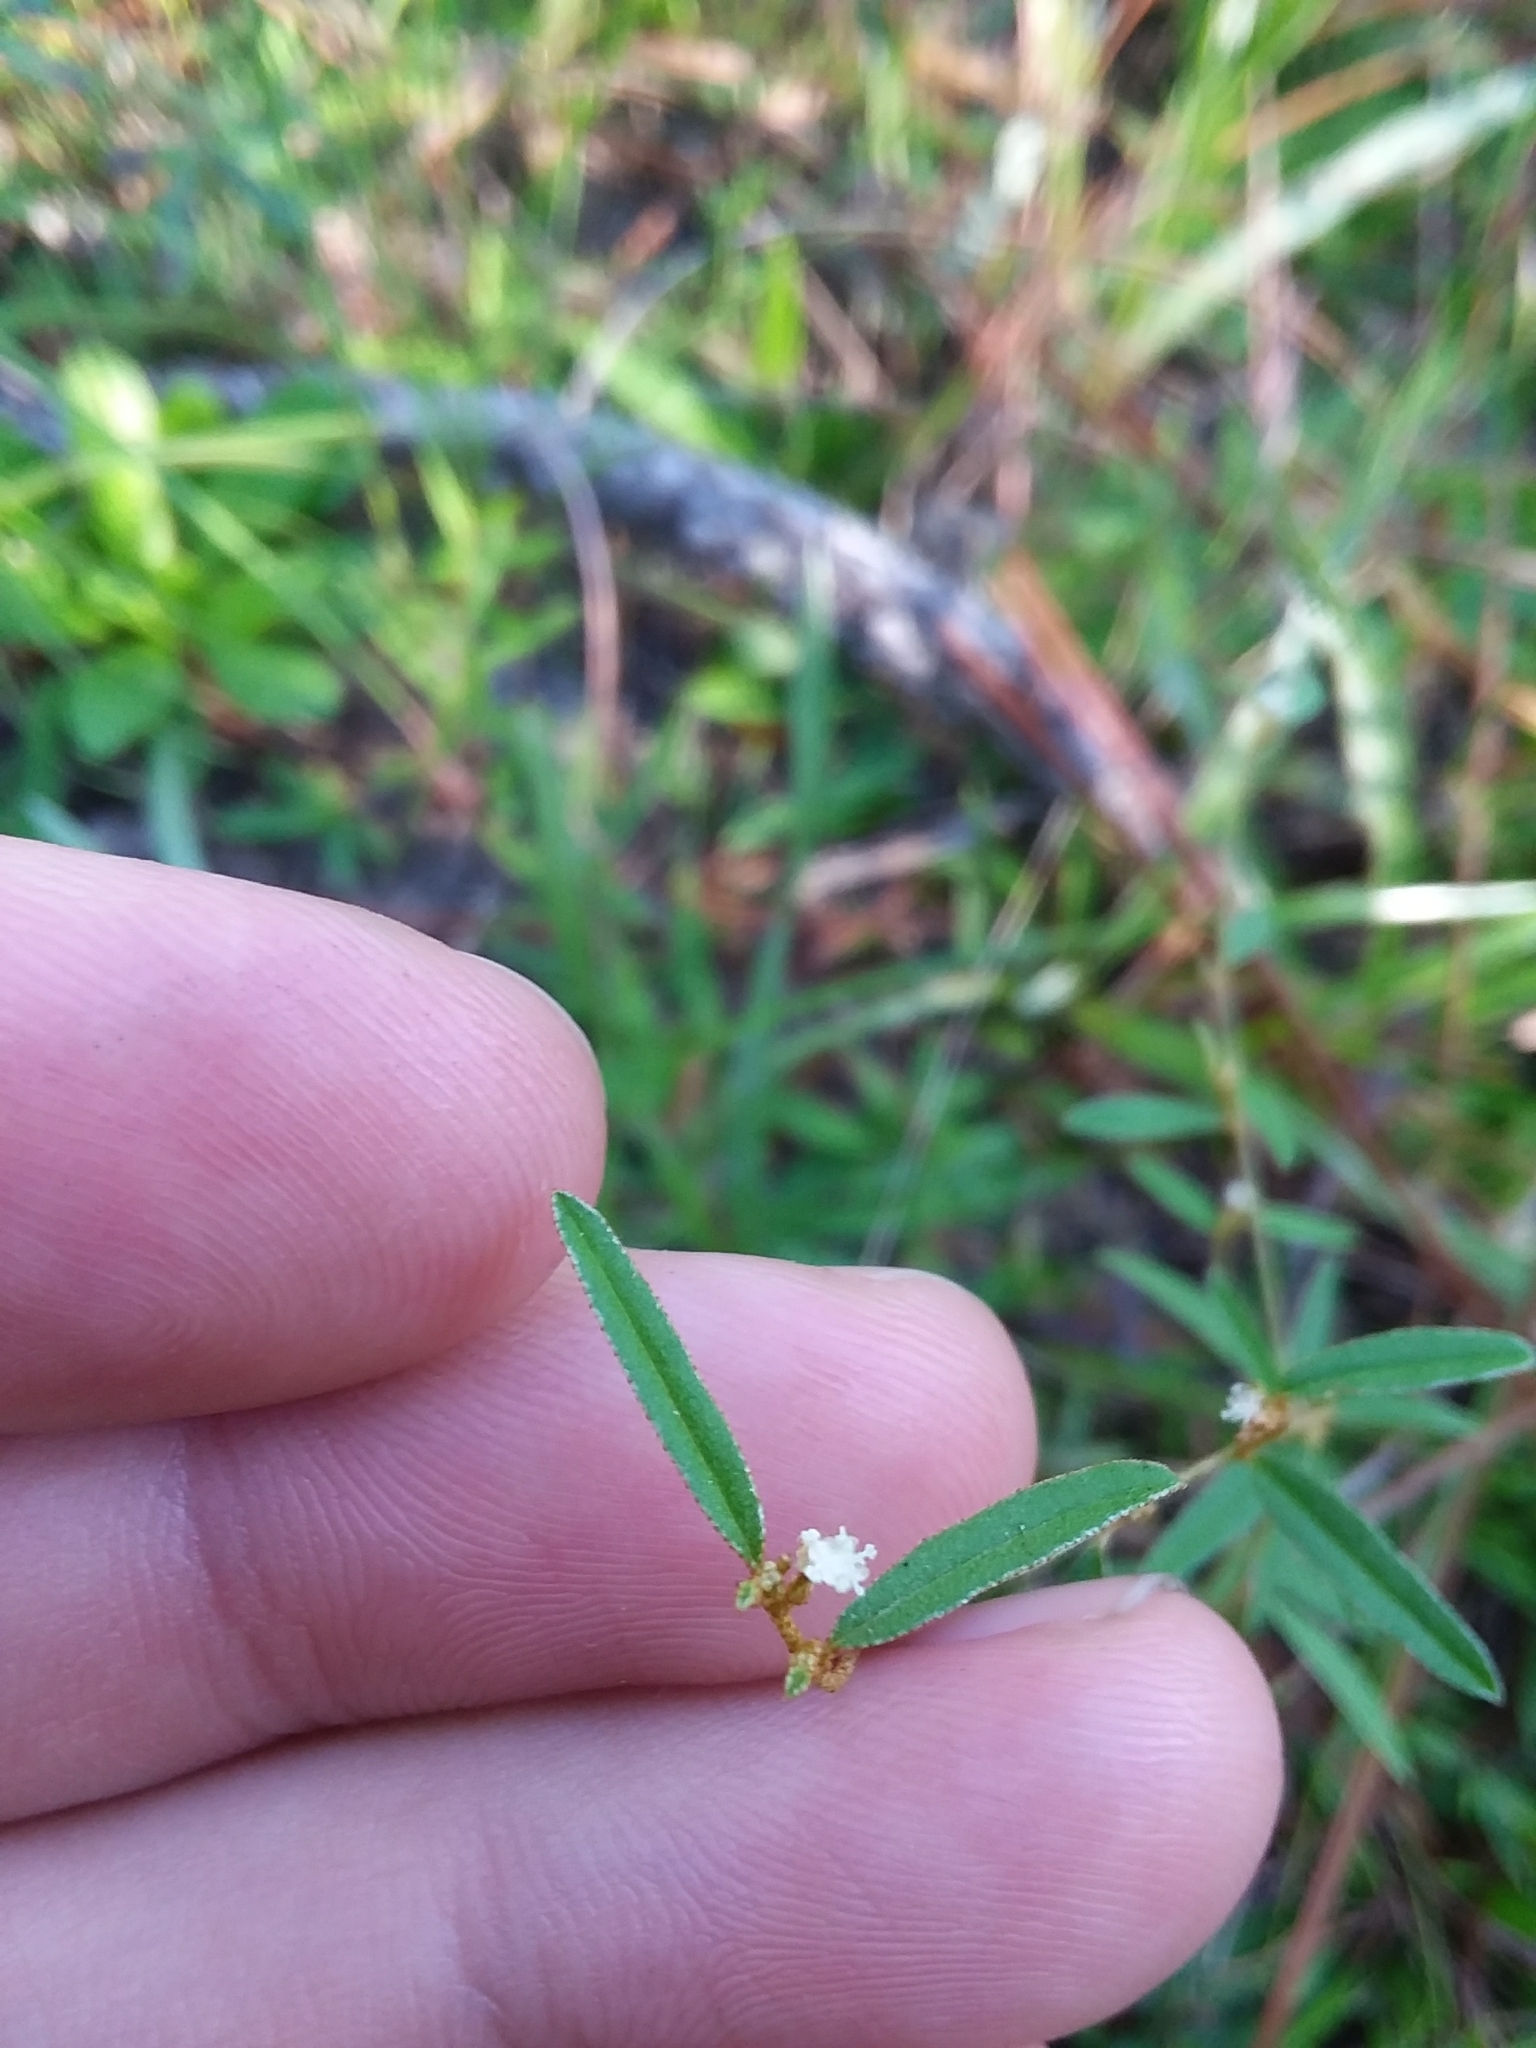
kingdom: Plantae
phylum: Tracheophyta
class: Magnoliopsida
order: Malpighiales
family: Euphorbiaceae
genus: Croton
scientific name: Croton michauxii
